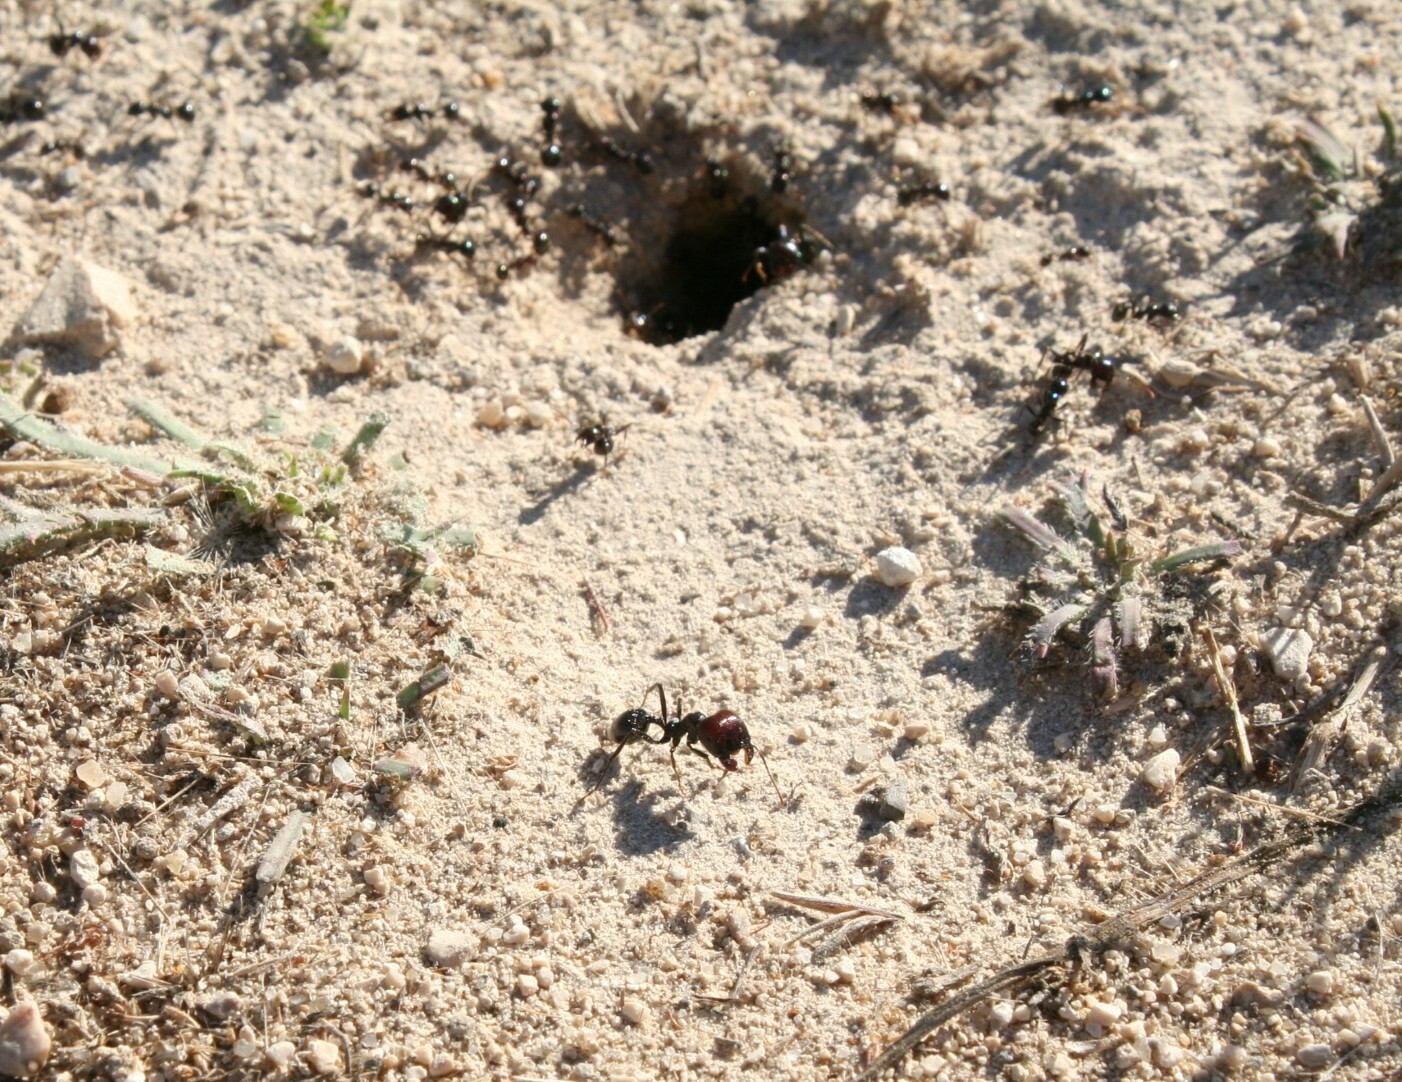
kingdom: Animalia
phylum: Arthropoda
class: Insecta
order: Hymenoptera
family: Formicidae
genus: Messor
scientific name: Messor barbarus
